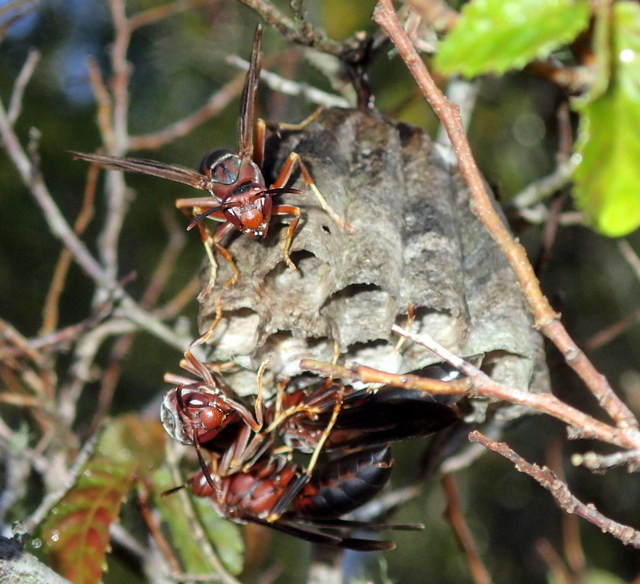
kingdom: Animalia
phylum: Arthropoda
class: Insecta
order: Hymenoptera
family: Eumenidae
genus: Polistes
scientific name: Polistes metricus
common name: Metric paper wasp
